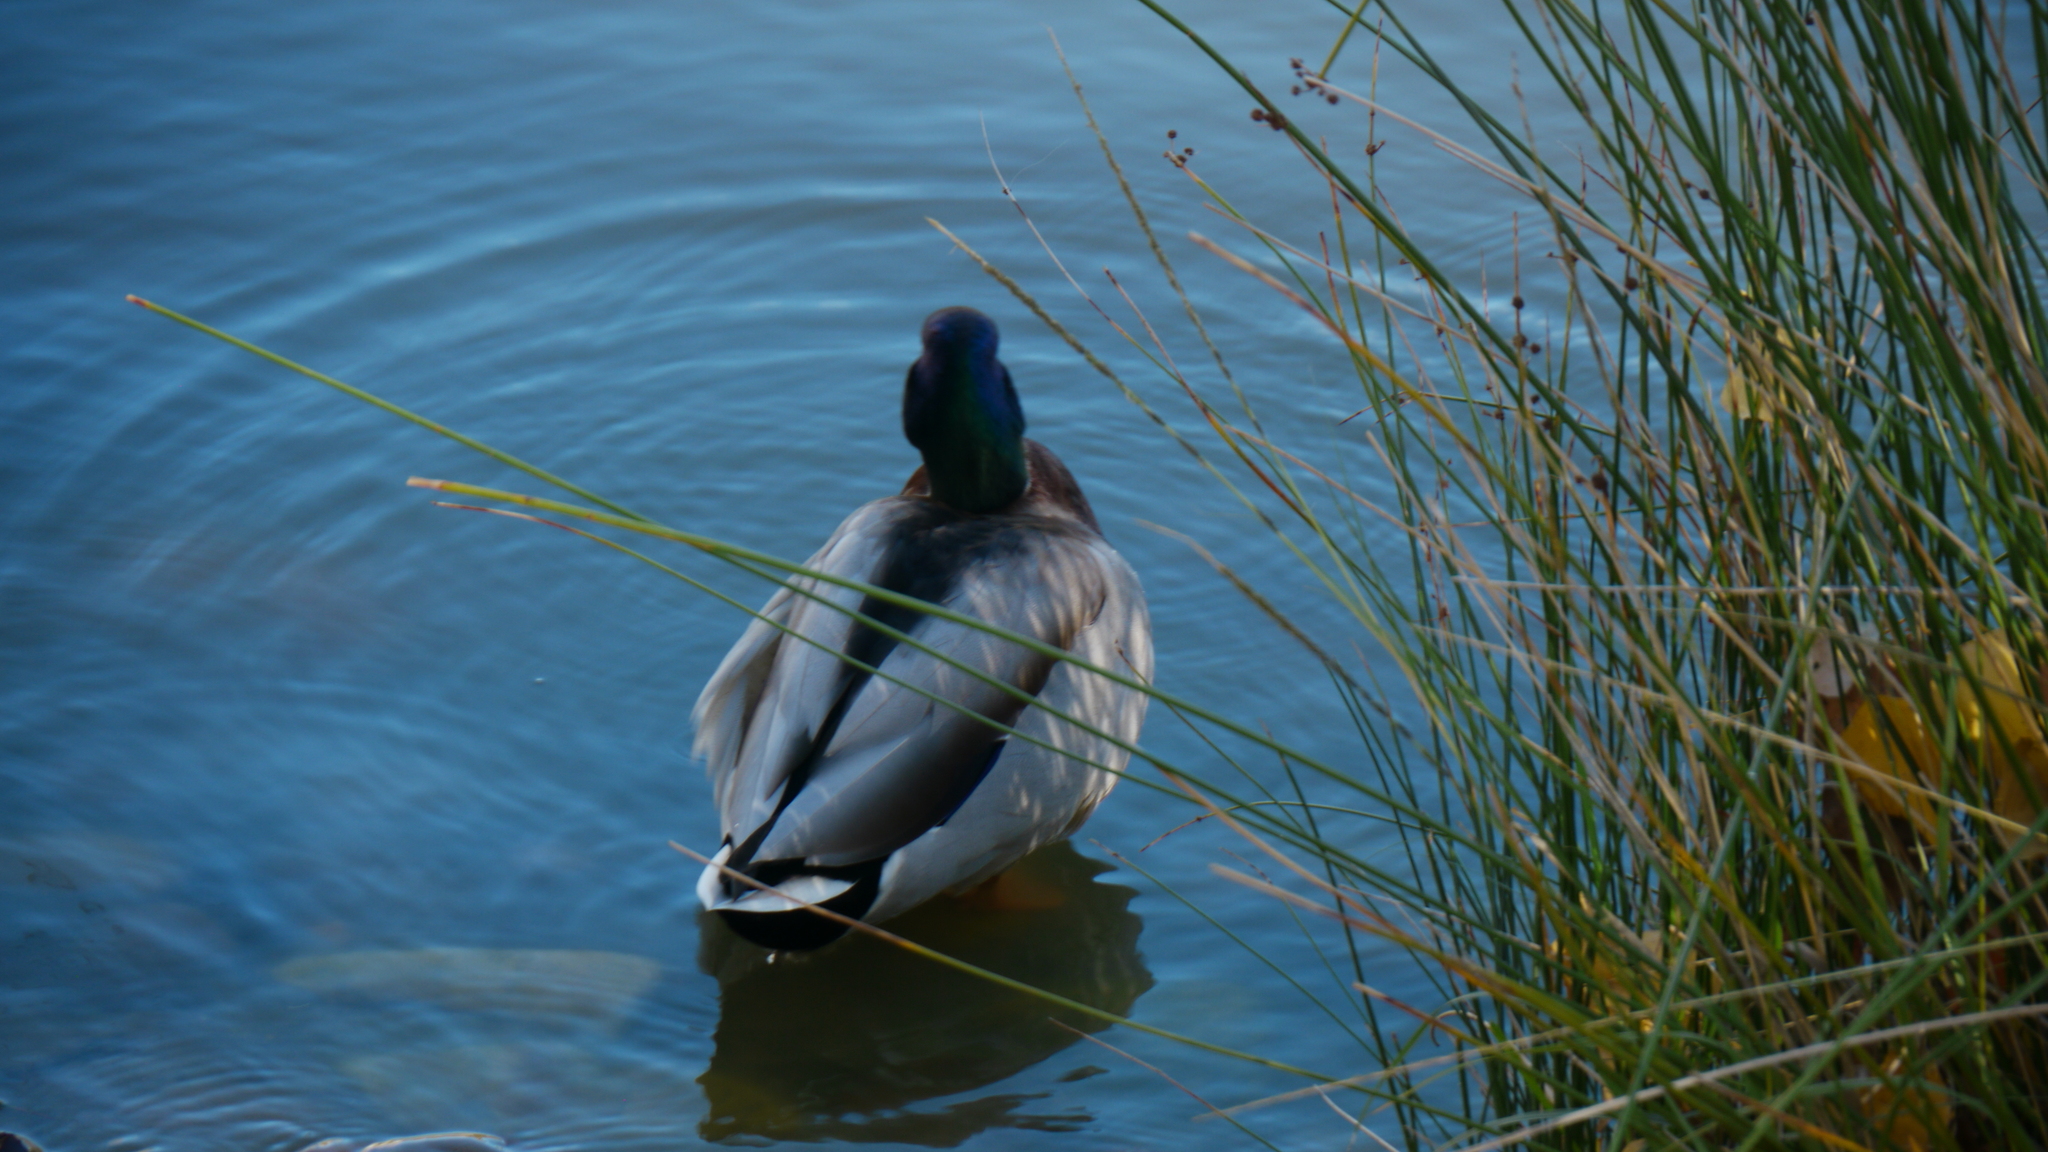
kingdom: Animalia
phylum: Chordata
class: Aves
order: Anseriformes
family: Anatidae
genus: Anas
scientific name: Anas platyrhynchos
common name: Mallard
